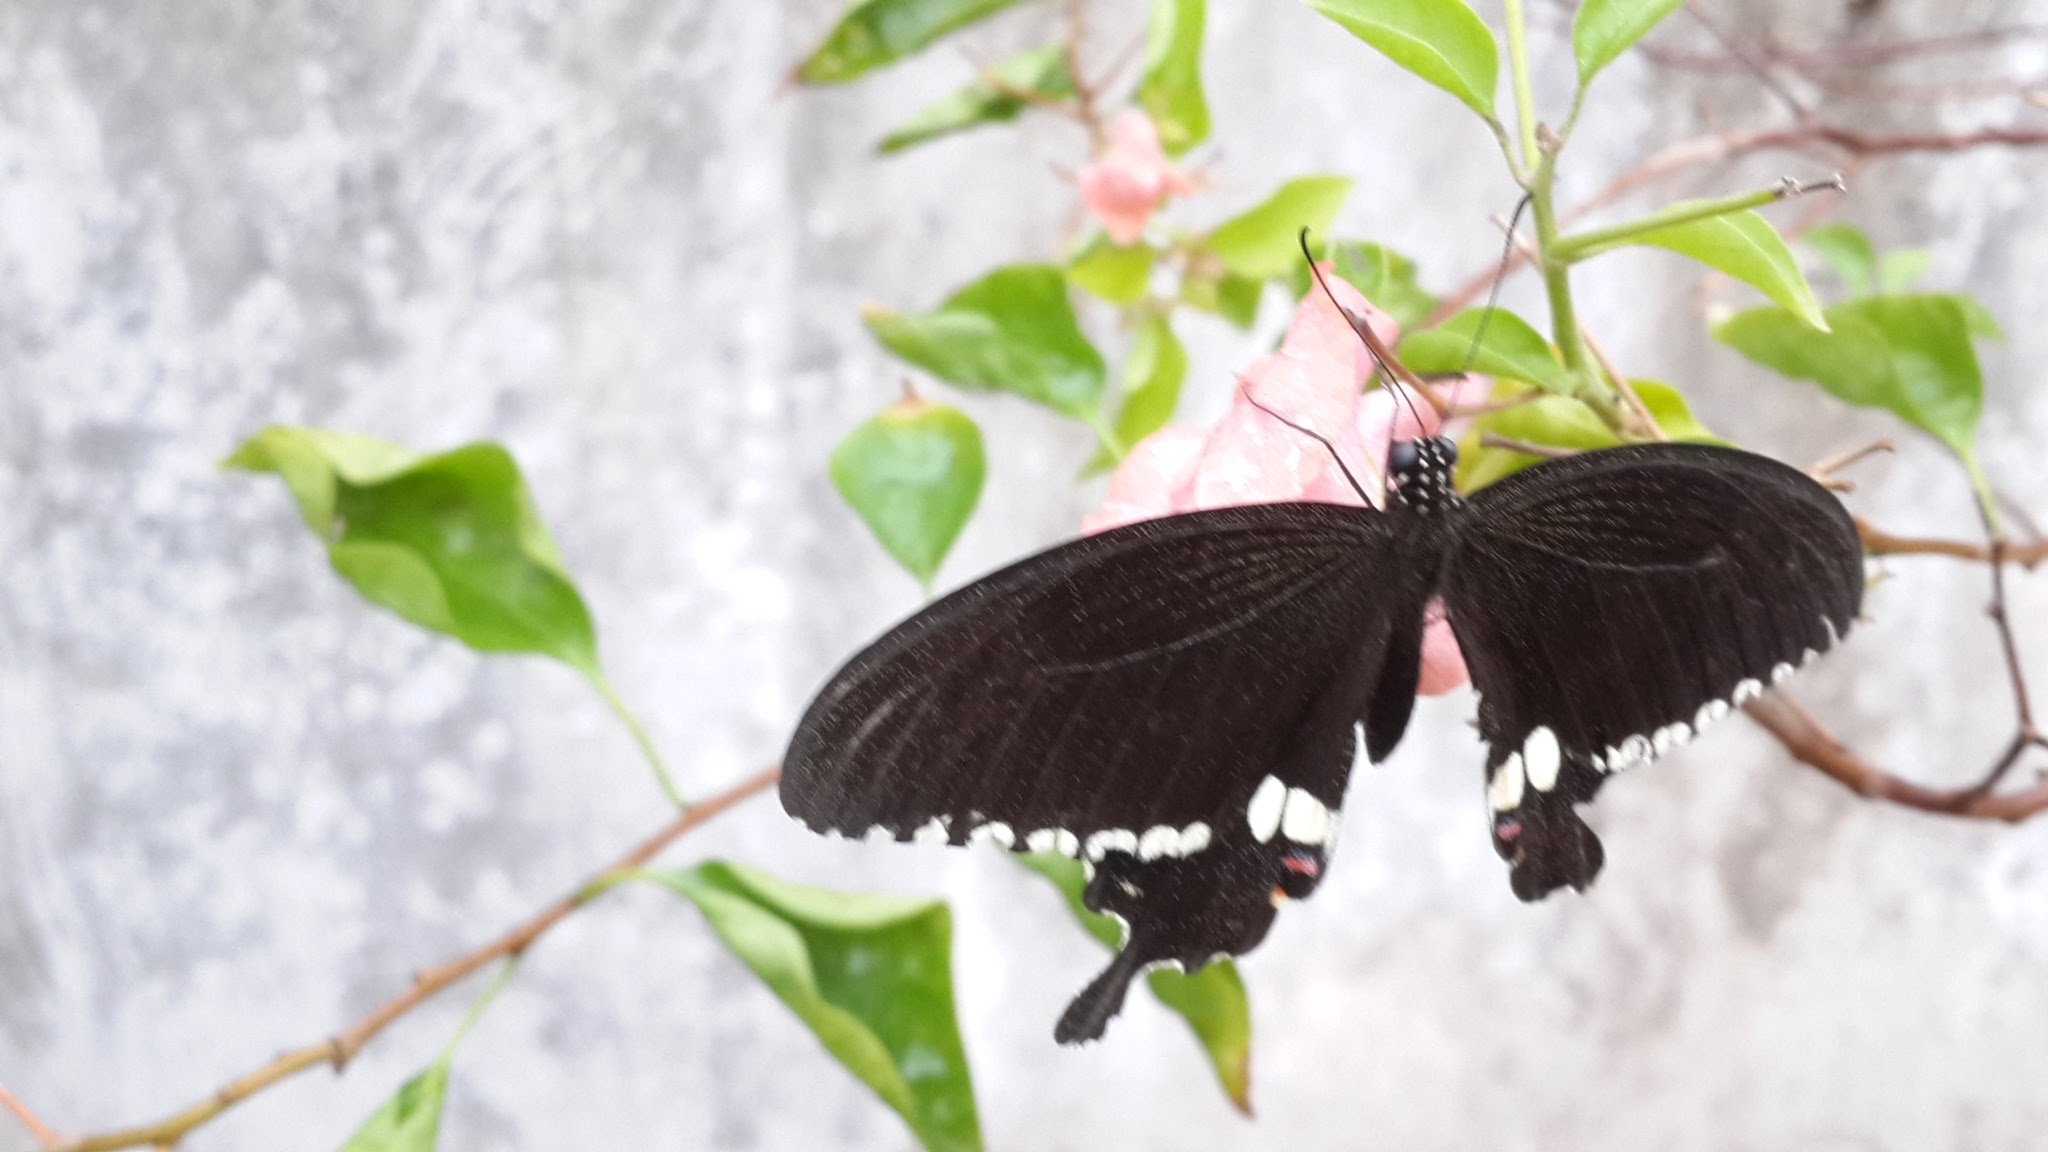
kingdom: Animalia
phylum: Arthropoda
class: Insecta
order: Lepidoptera
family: Papilionidae
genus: Papilio
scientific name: Papilio polytes
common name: Common mormon
